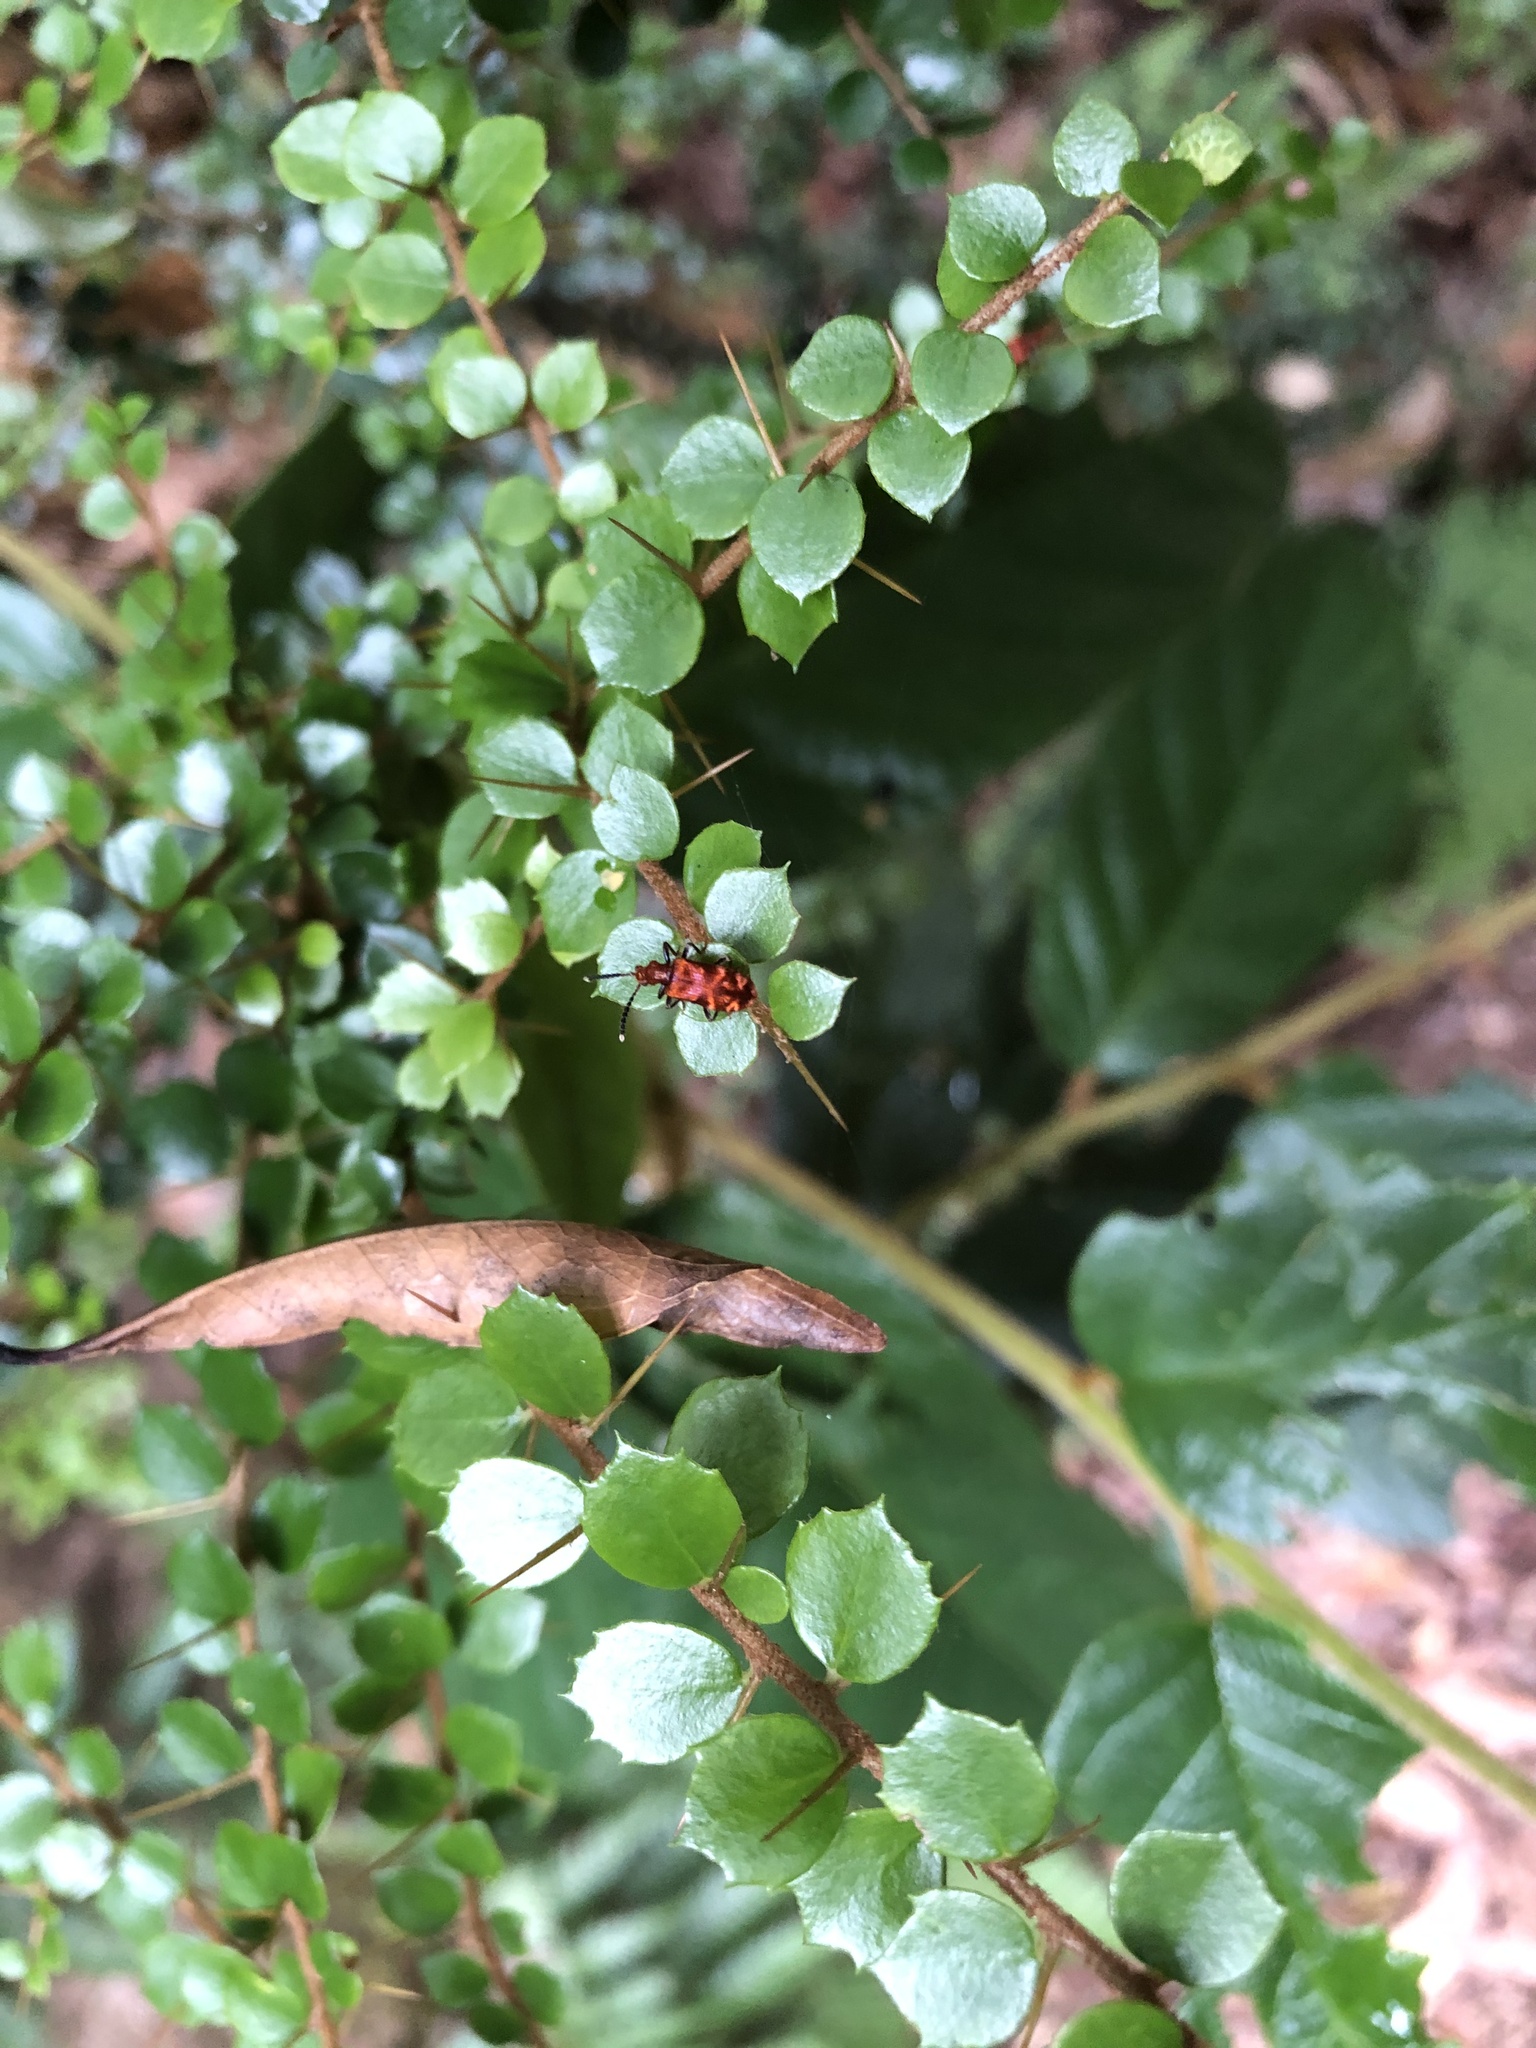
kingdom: Plantae
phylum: Tracheophyta
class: Magnoliopsida
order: Apiales
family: Pittosporaceae
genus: Pittosporum
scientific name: Pittosporum multiflorum
